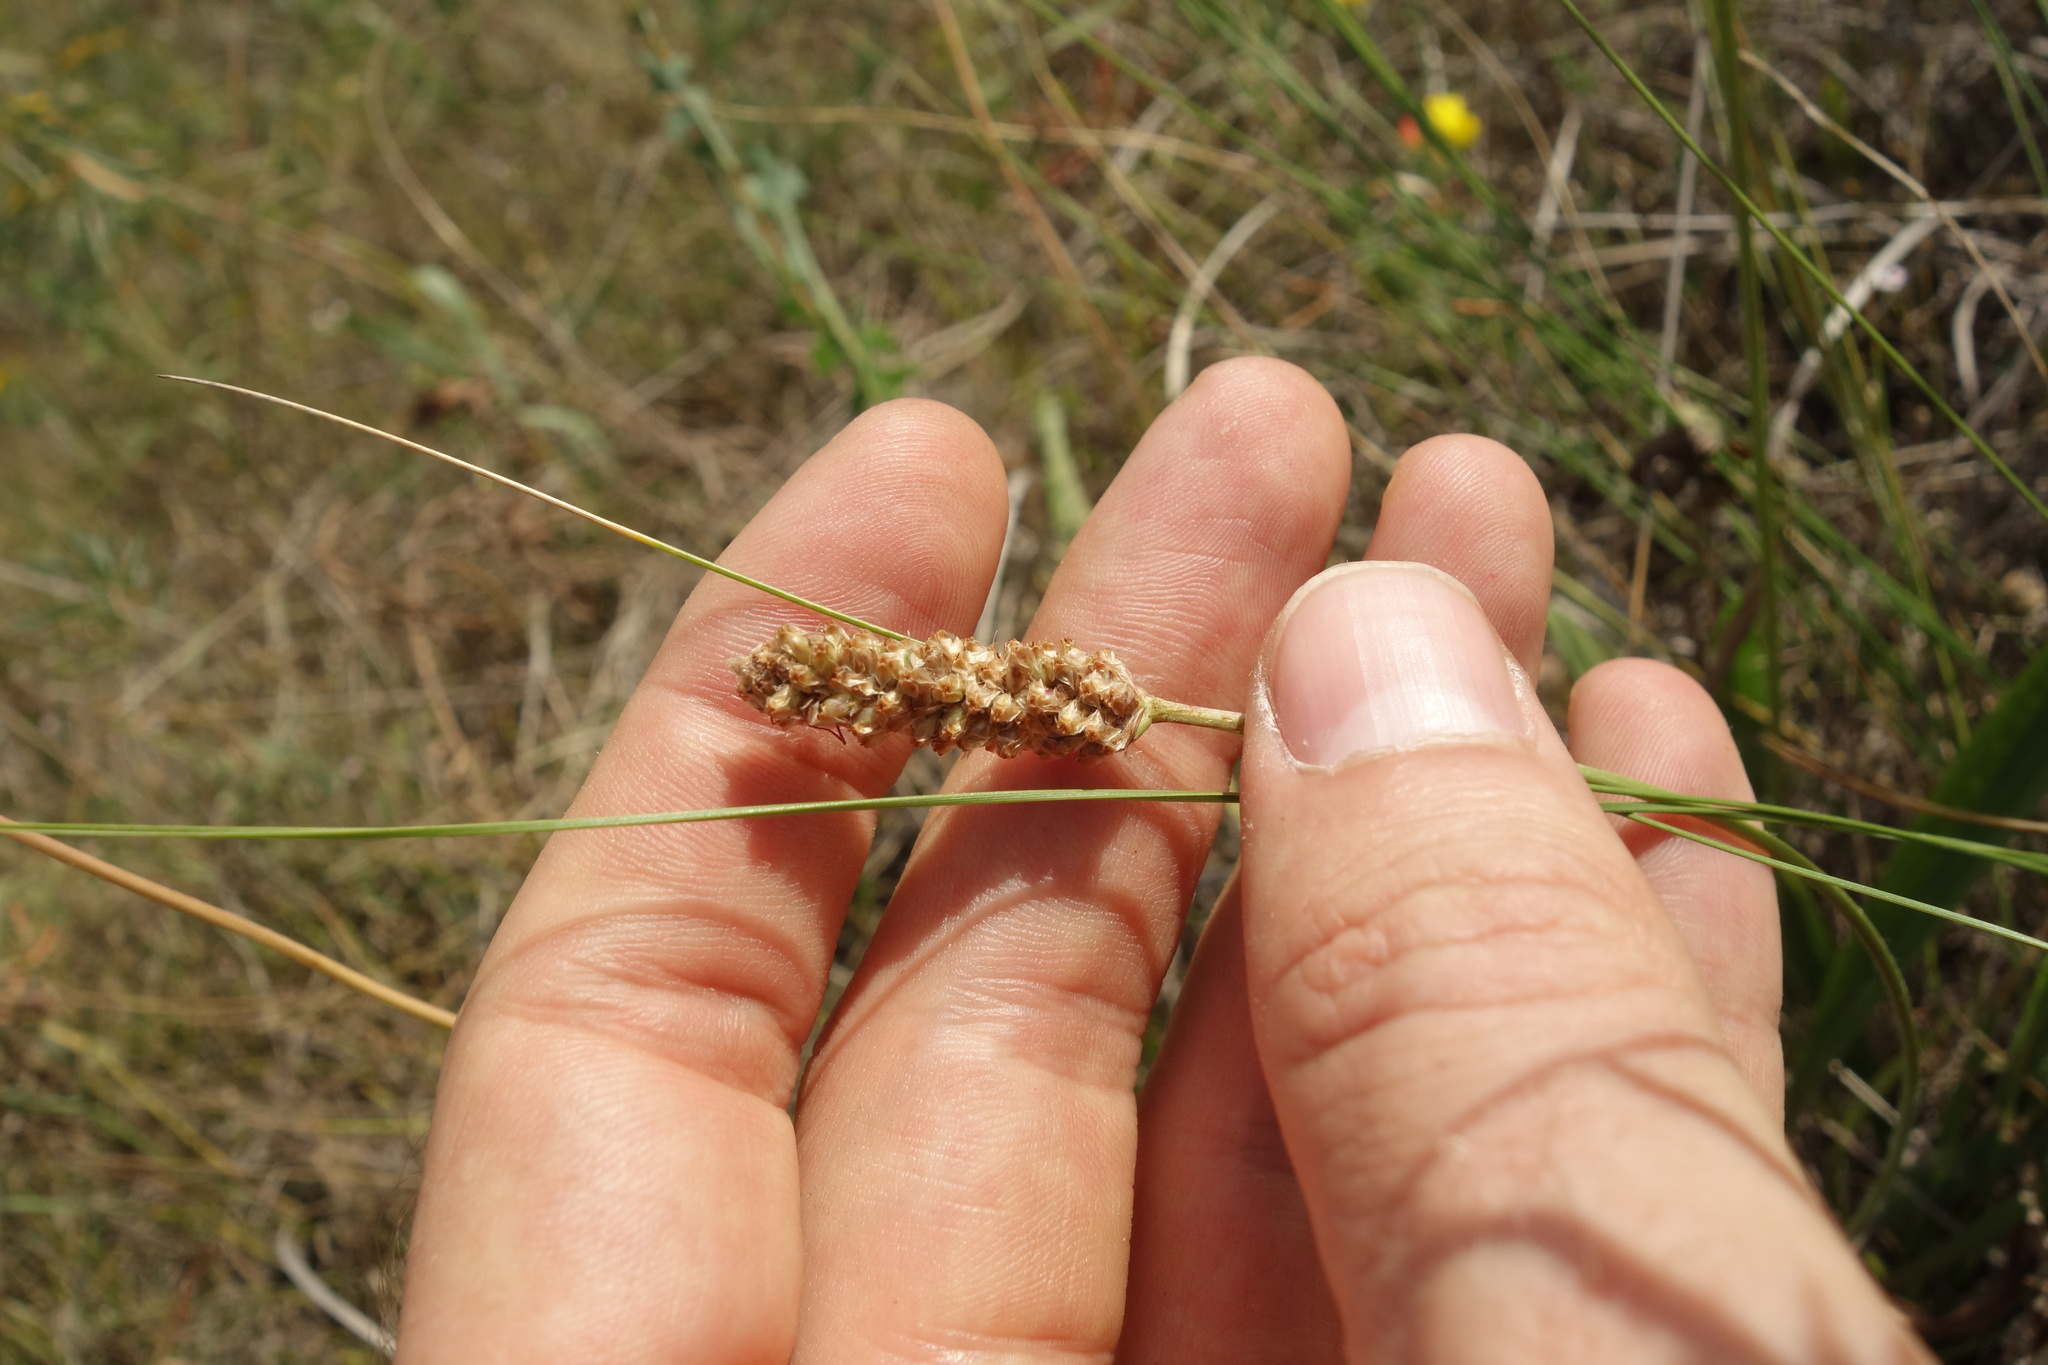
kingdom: Plantae
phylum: Tracheophyta
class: Magnoliopsida
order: Lamiales
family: Plantaginaceae
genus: Plantago
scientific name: Plantago lanceolata
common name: Ribwort plantain
